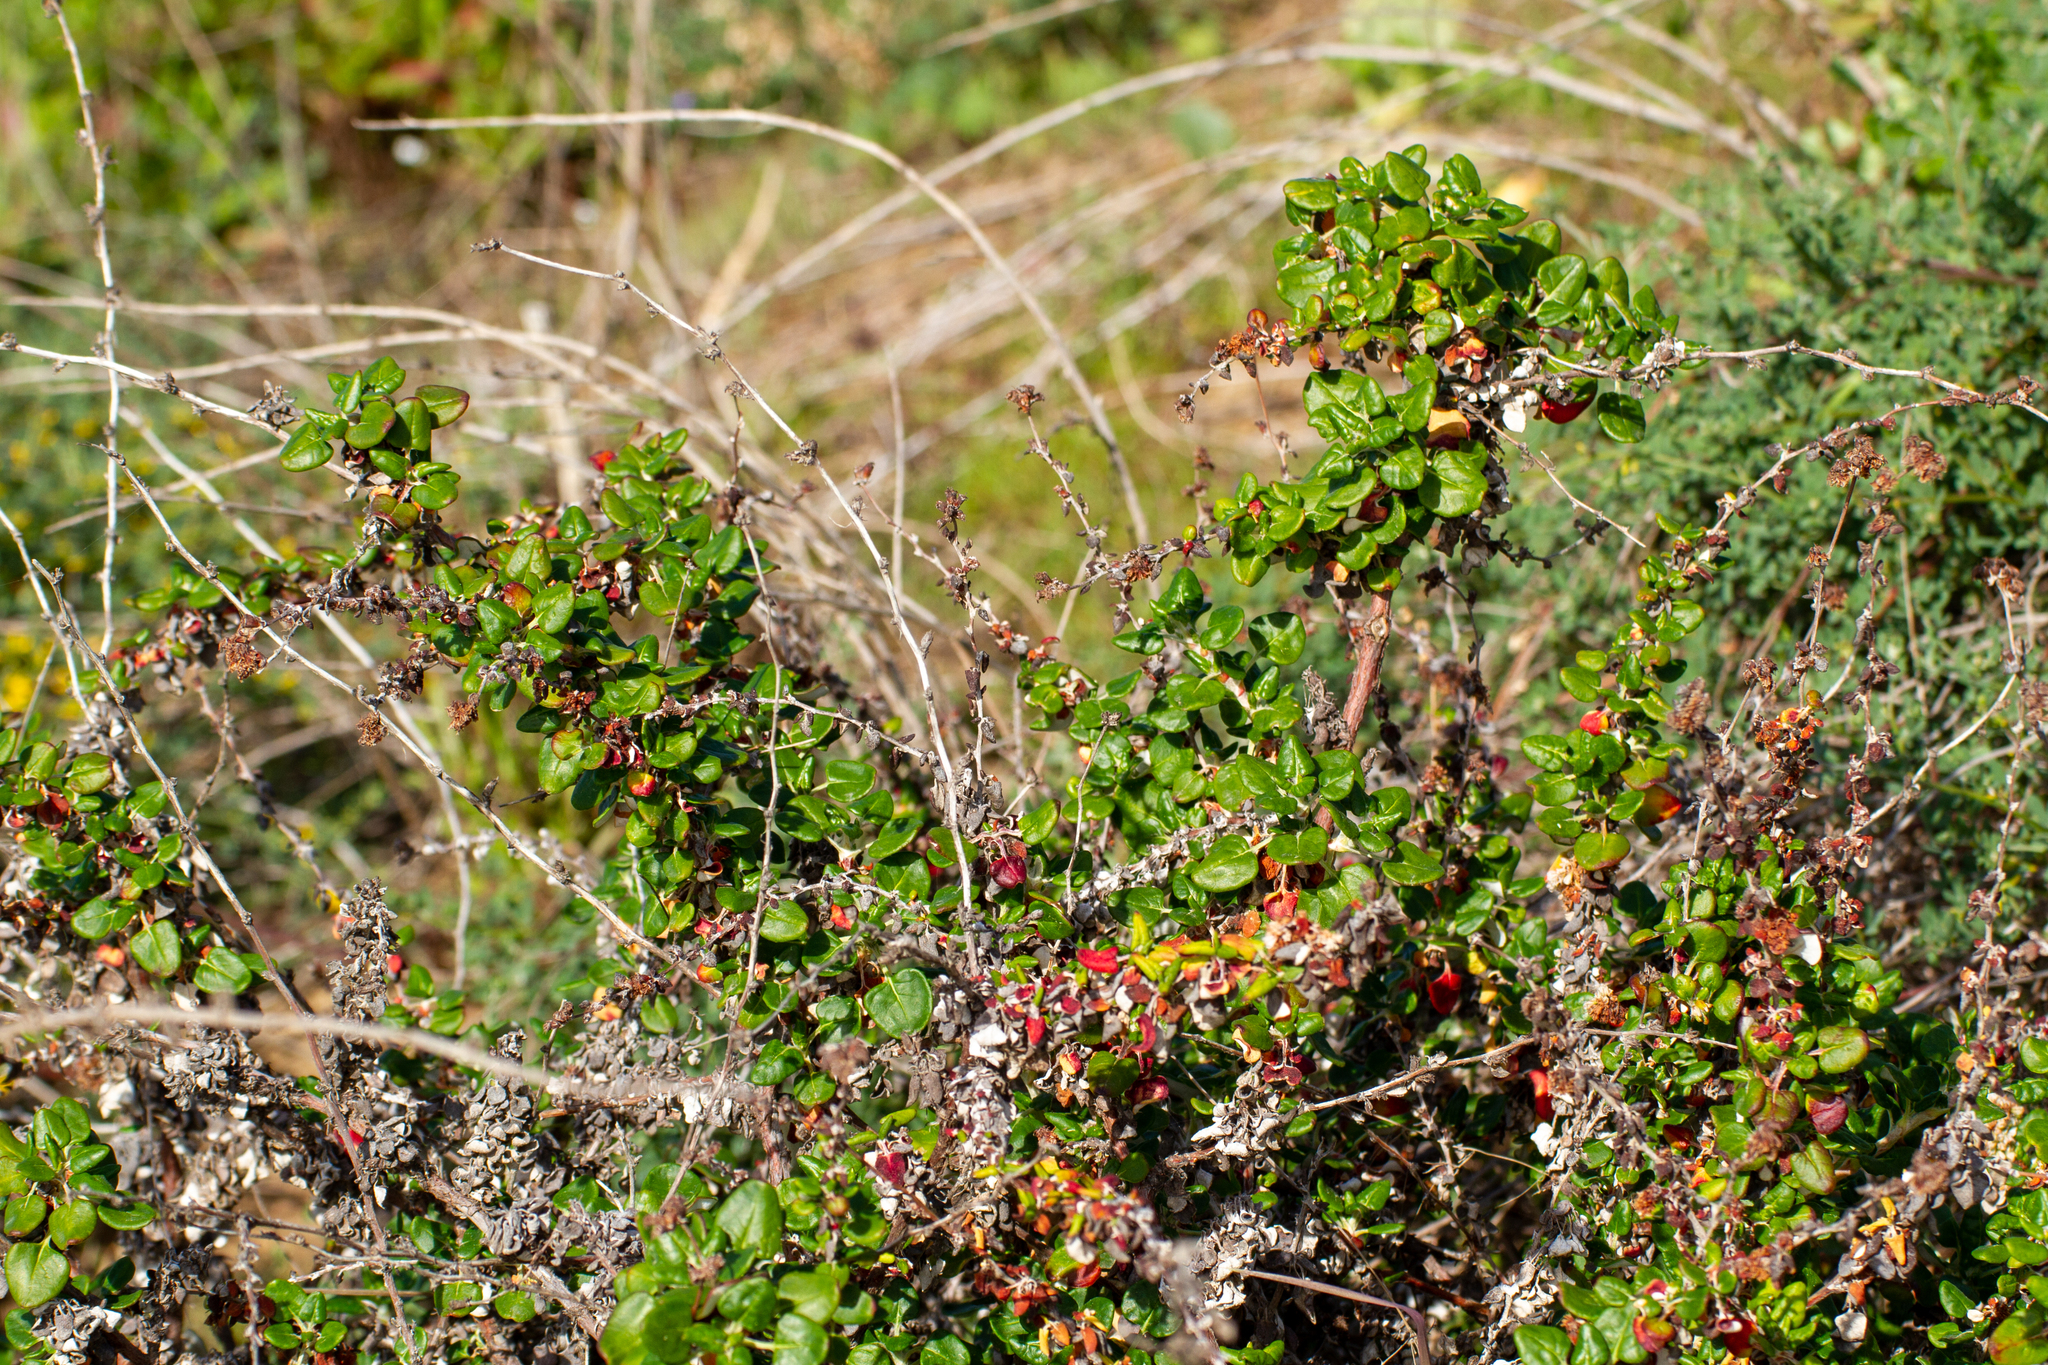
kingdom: Plantae
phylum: Tracheophyta
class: Magnoliopsida
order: Caryophyllales
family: Polygonaceae
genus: Eriogonum
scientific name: Eriogonum parvifolium
